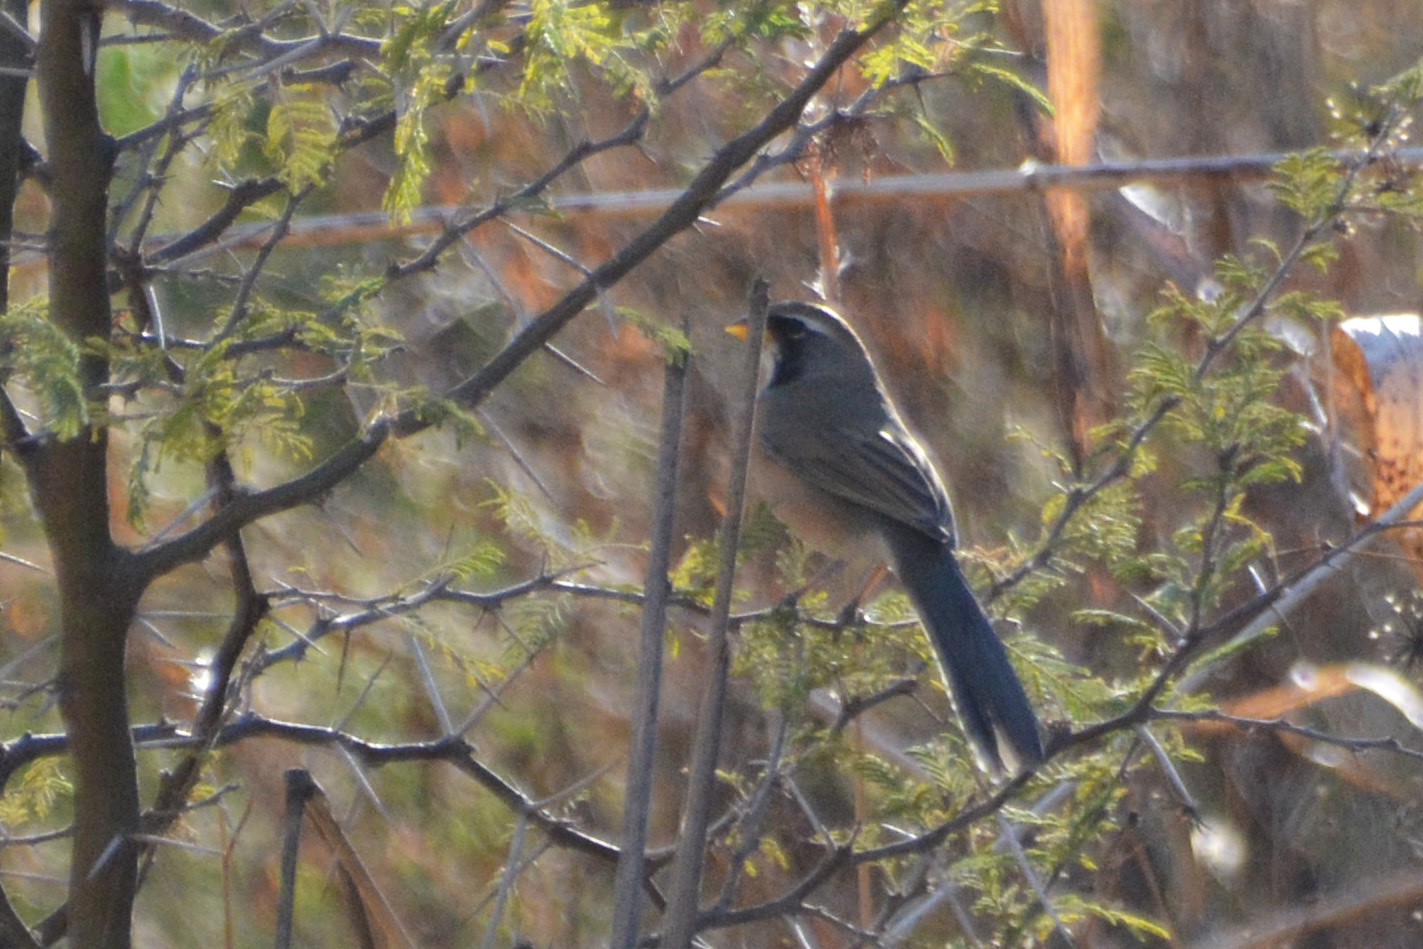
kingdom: Animalia
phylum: Chordata
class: Aves
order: Passeriformes
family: Thraupidae
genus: Saltatricula
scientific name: Saltatricula multicolor
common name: Many-colored chaco finch
